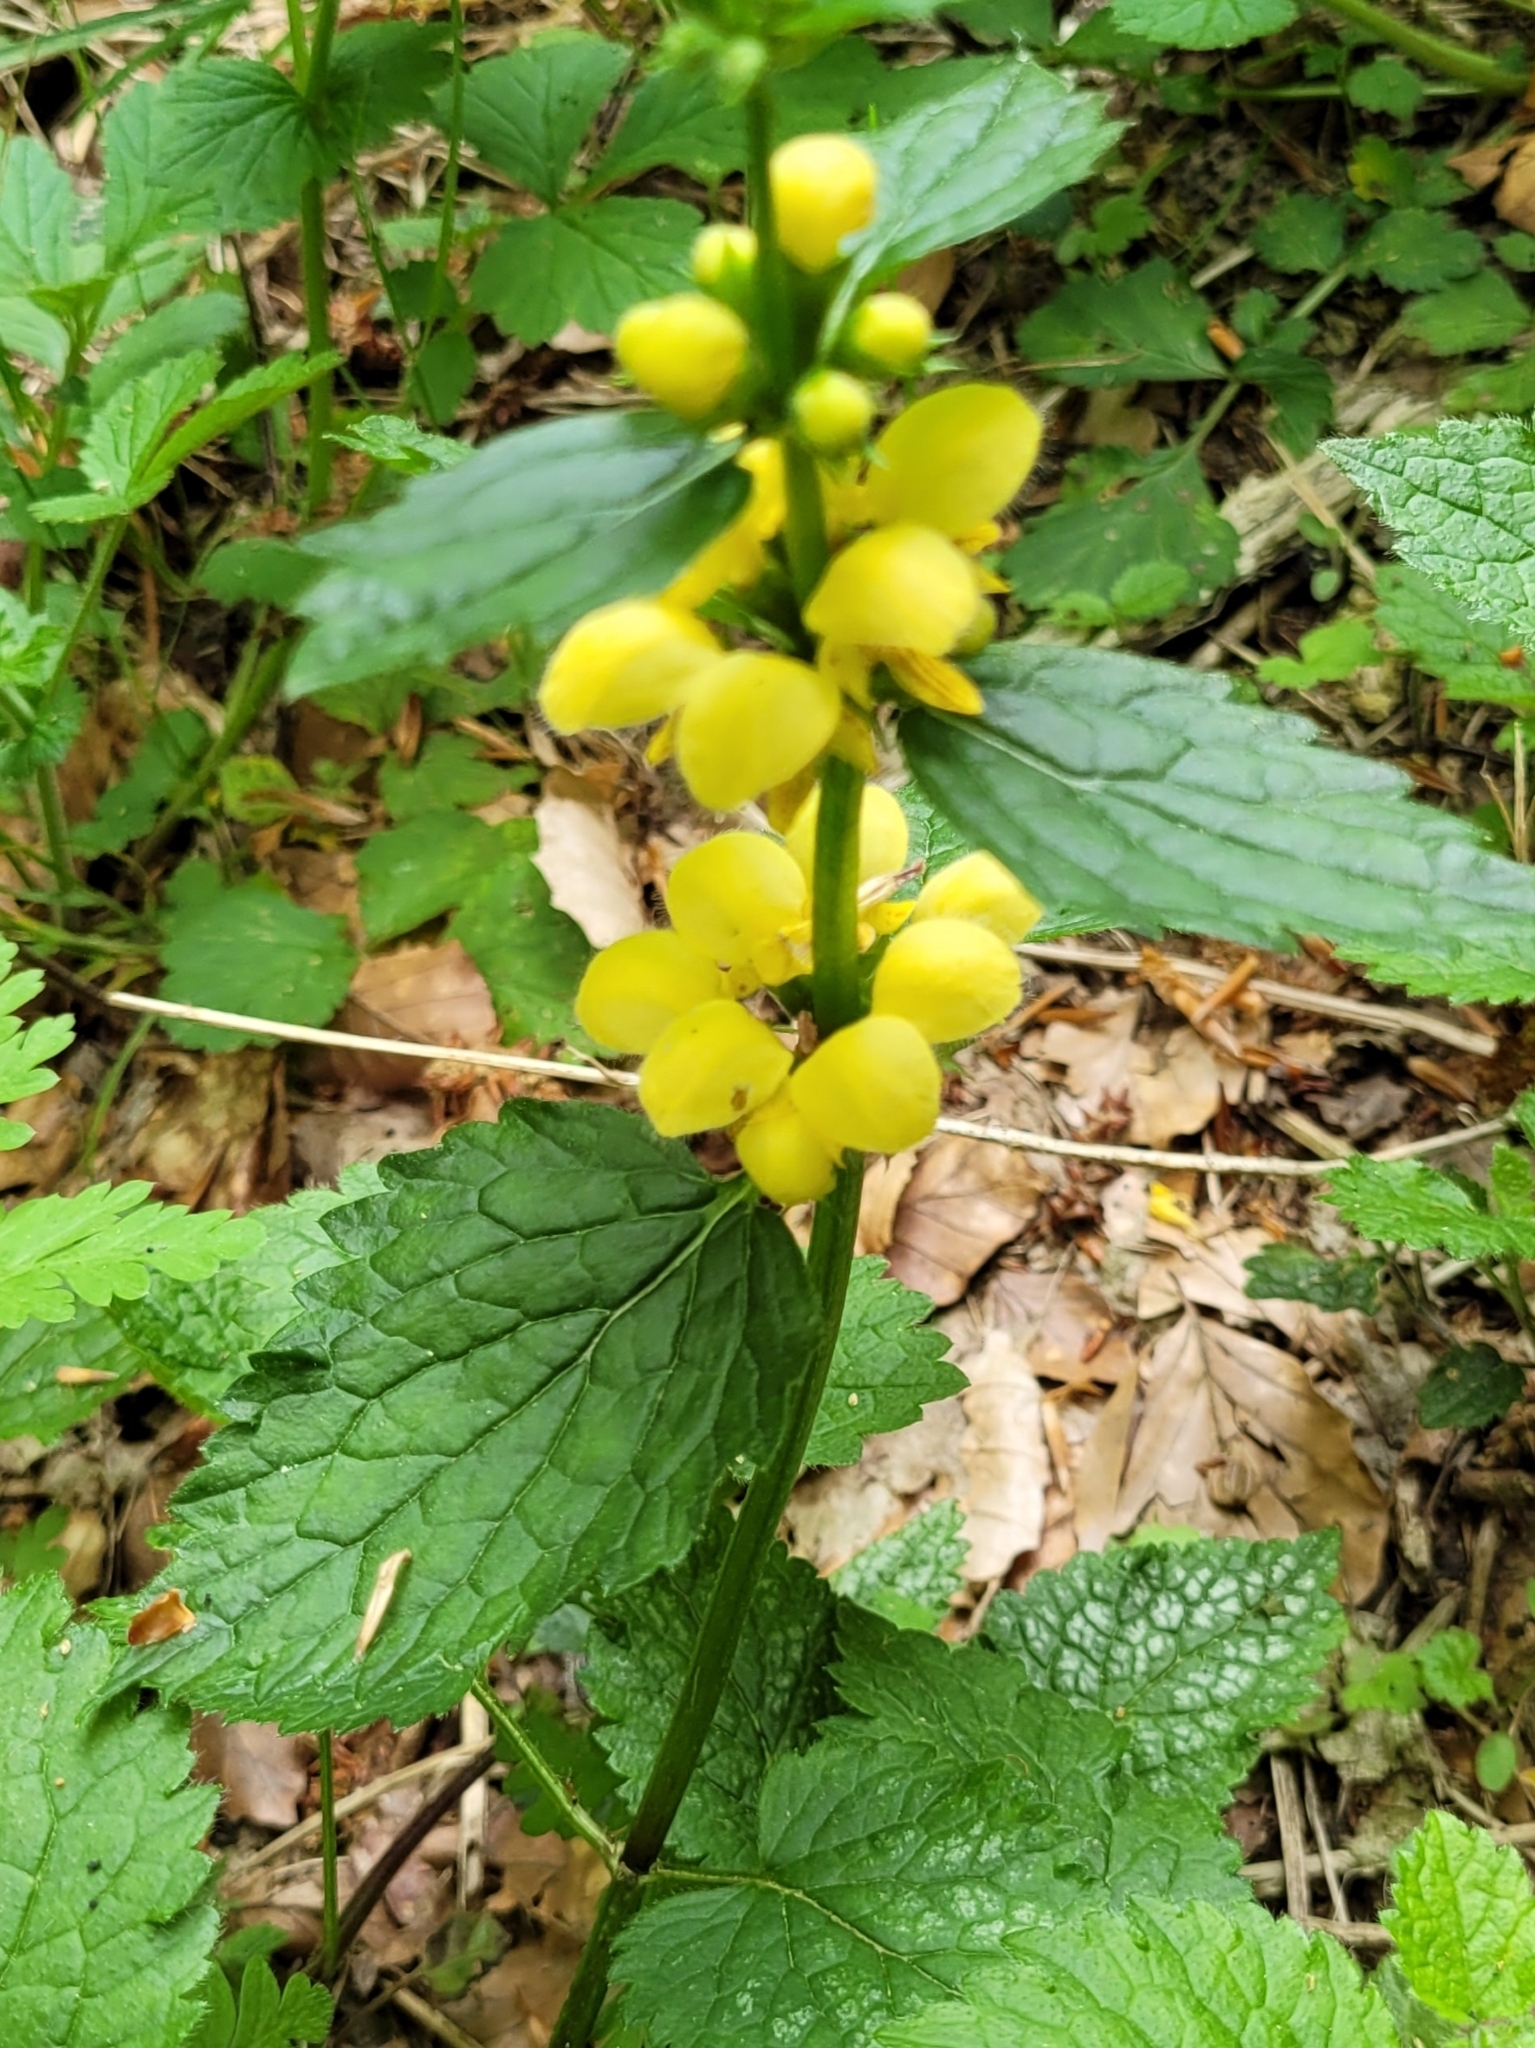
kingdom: Plantae
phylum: Tracheophyta
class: Magnoliopsida
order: Lamiales
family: Lamiaceae
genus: Lamium
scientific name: Lamium galeobdolon
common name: Yellow archangel
